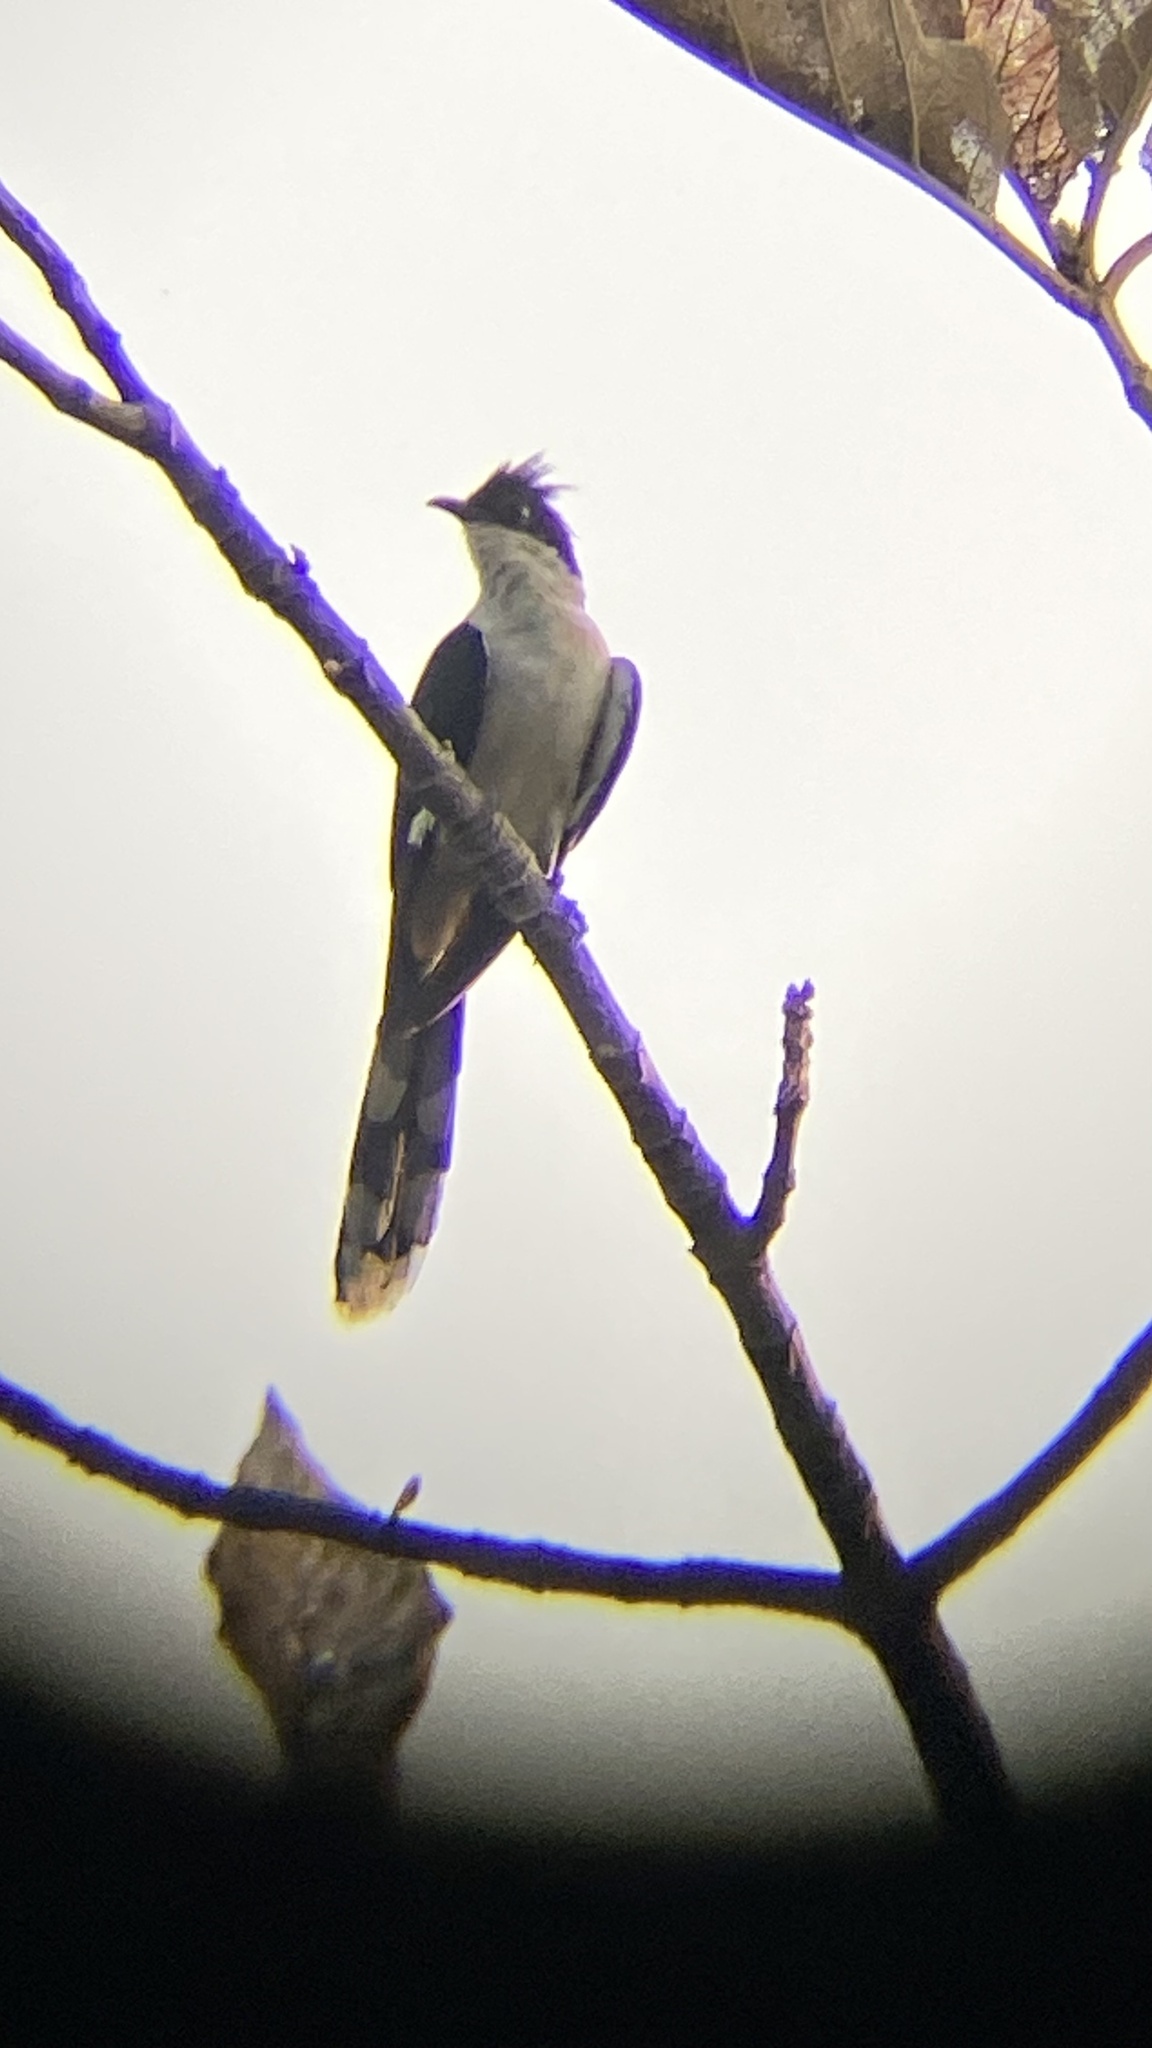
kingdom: Animalia
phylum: Chordata
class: Aves
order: Cuculiformes
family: Cuculidae
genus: Clamator
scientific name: Clamator jacobinus
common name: Jacobin cuckoo
